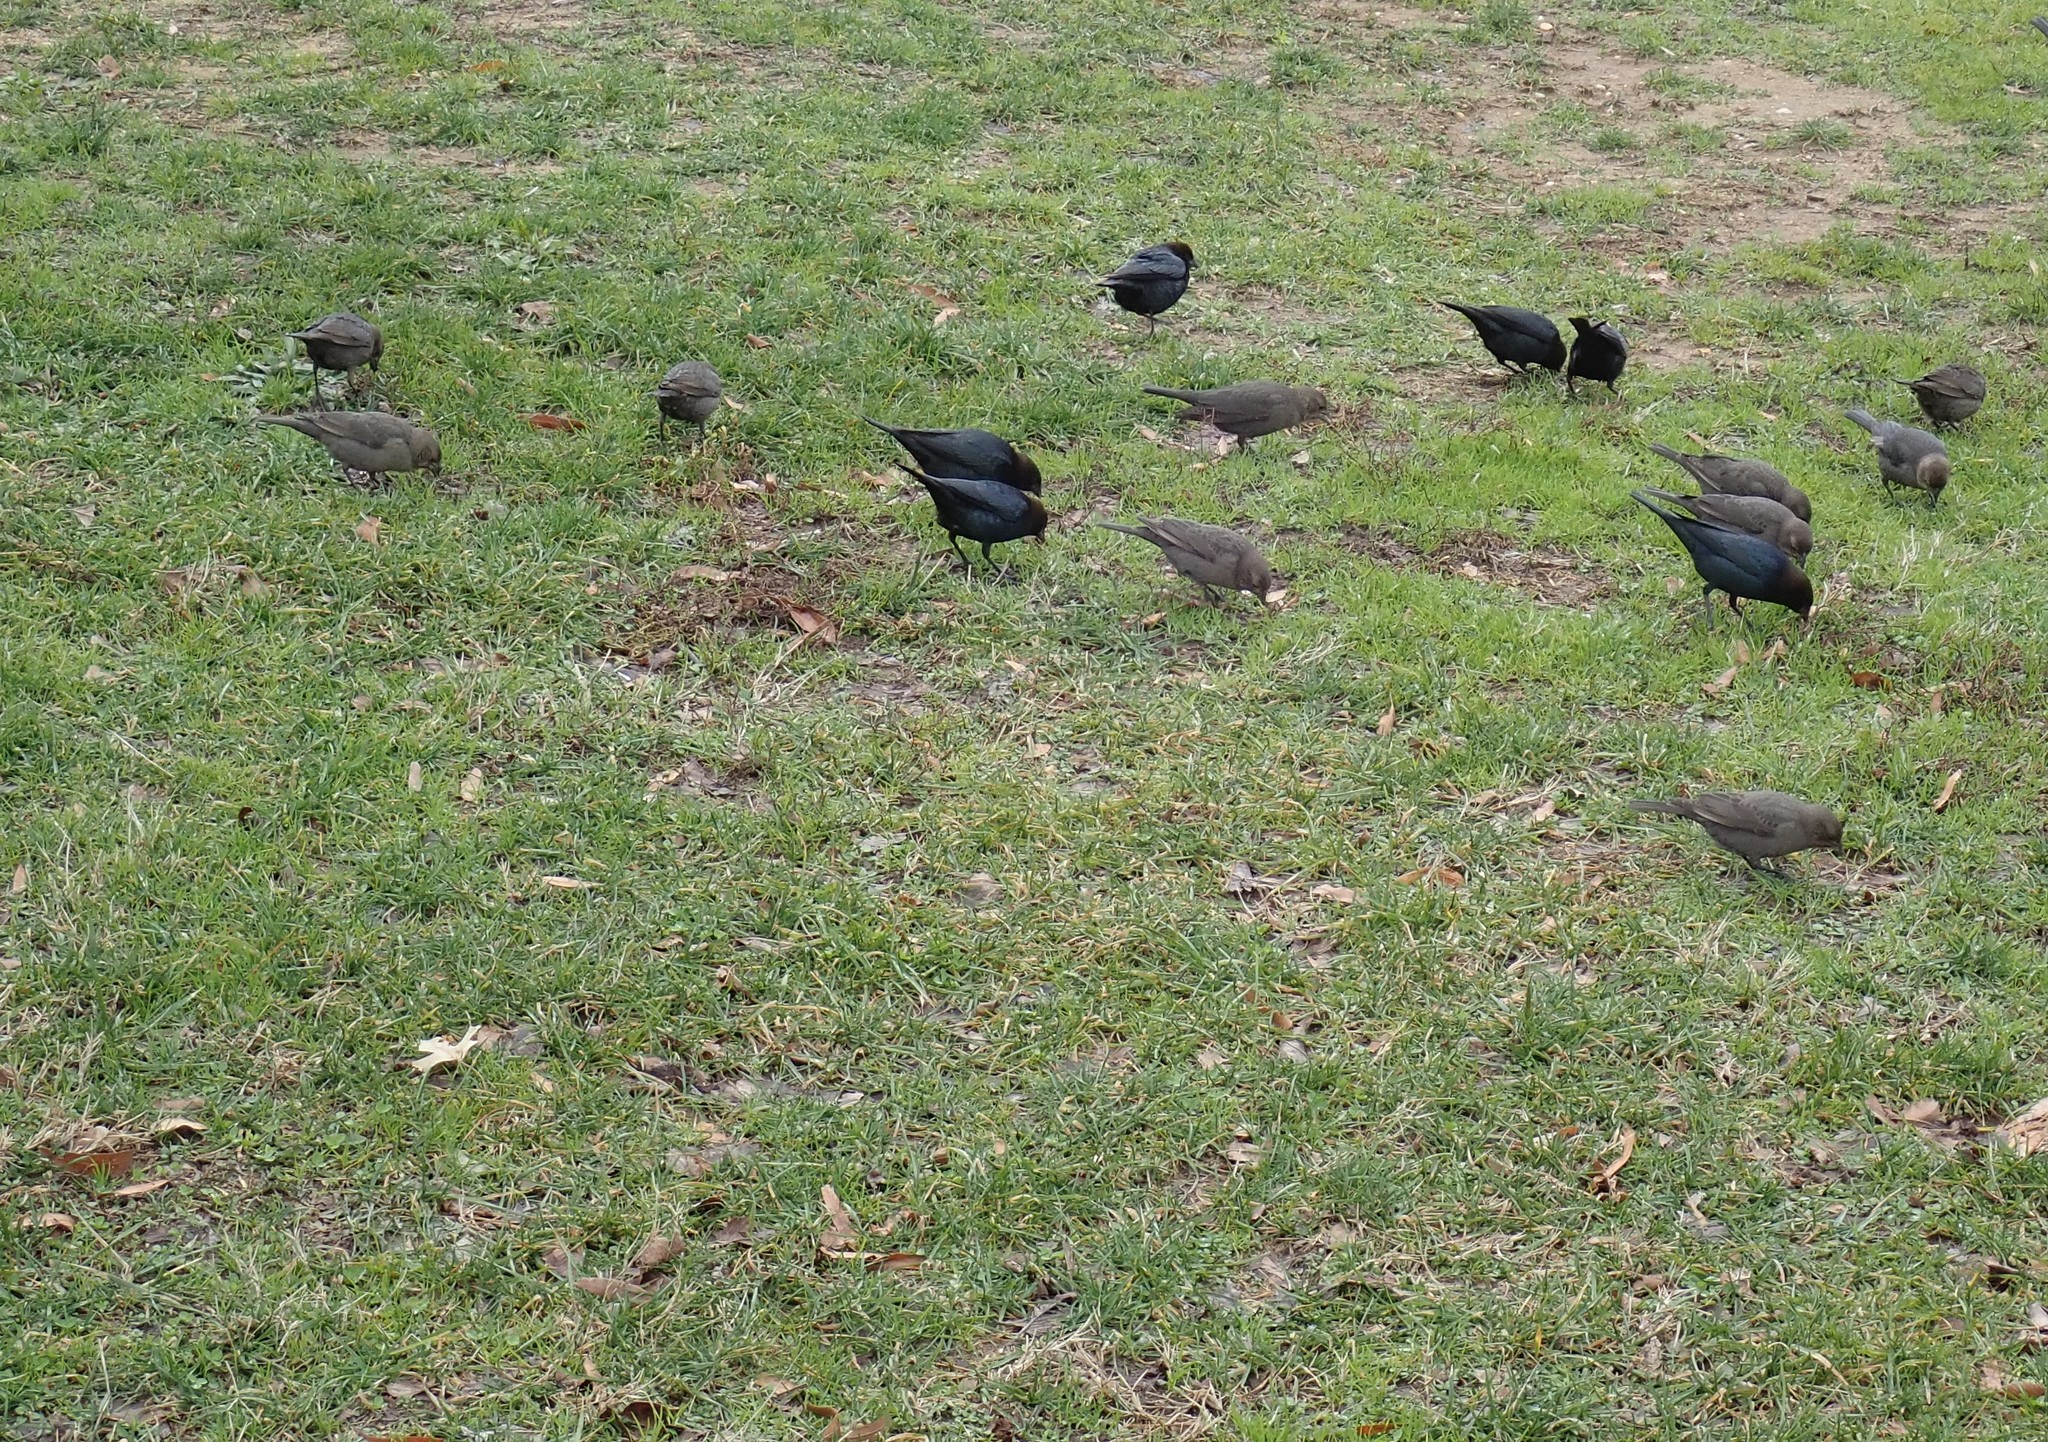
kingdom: Animalia
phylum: Chordata
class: Aves
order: Passeriformes
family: Icteridae
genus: Molothrus
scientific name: Molothrus ater
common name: Brown-headed cowbird
